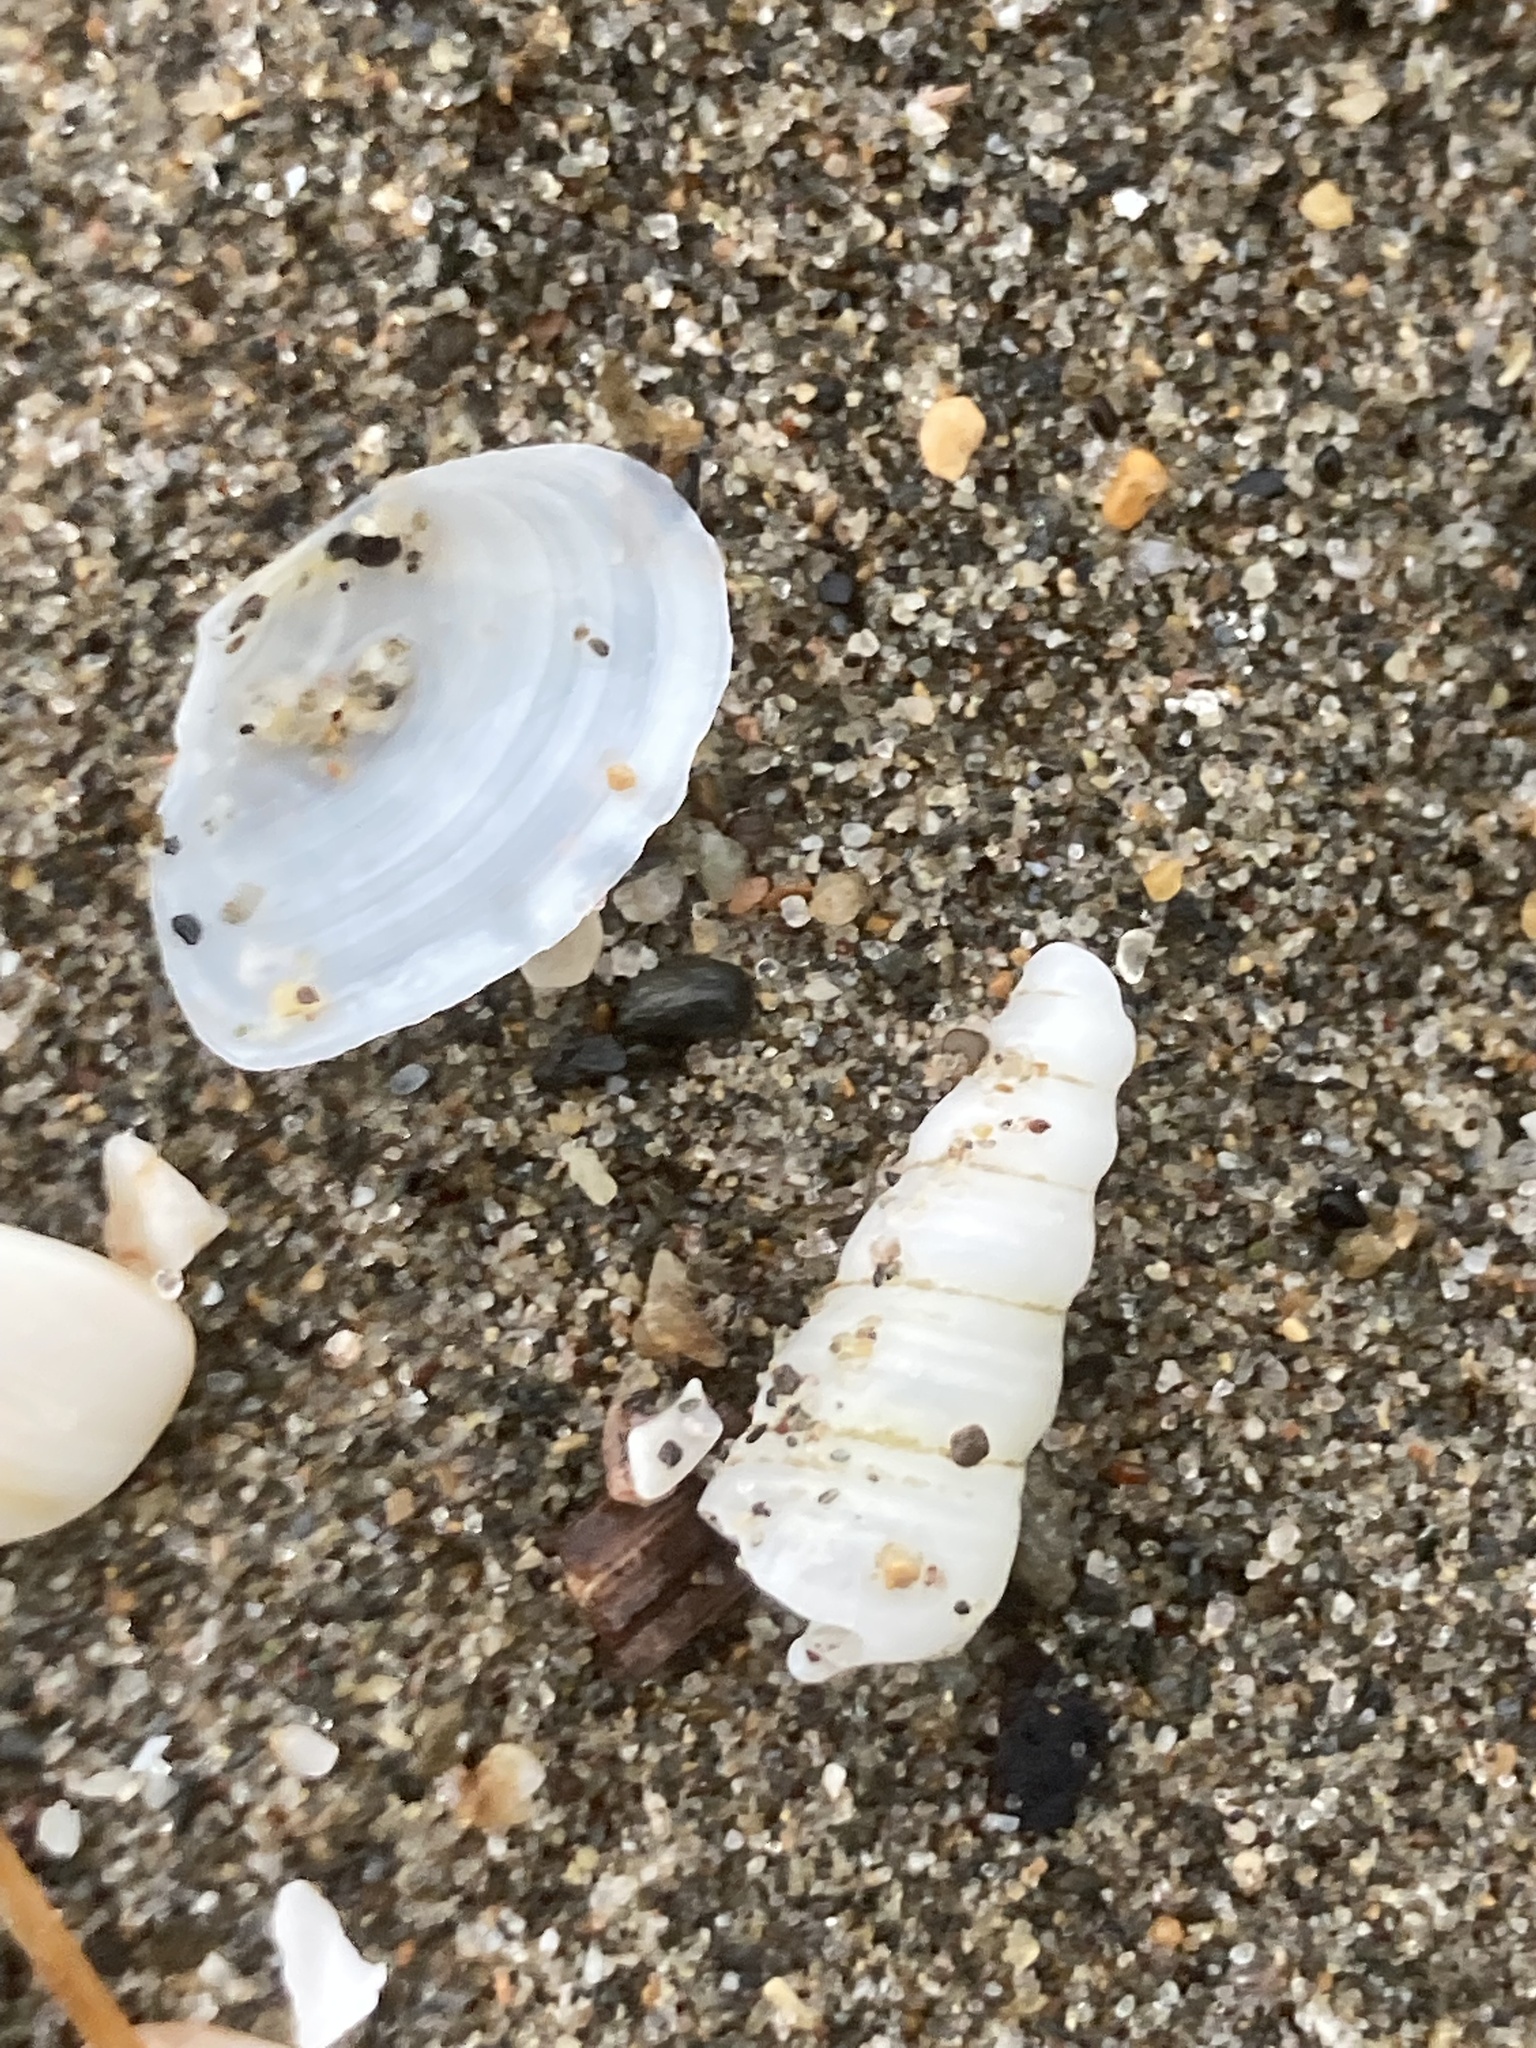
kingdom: Animalia
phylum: Mollusca
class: Bivalvia
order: Cardiida
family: Tellinidae
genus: Macomangulus
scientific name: Macomangulus tenuis
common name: Thin tellin
